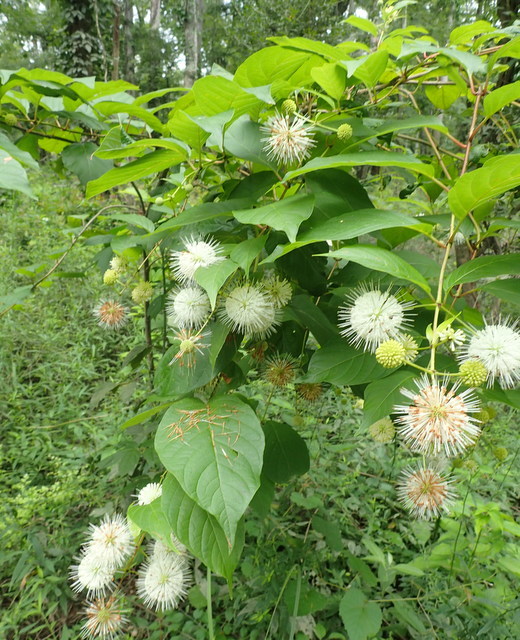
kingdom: Plantae
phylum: Tracheophyta
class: Magnoliopsida
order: Gentianales
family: Rubiaceae
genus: Cephalanthus
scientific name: Cephalanthus occidentalis
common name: Button-willow
